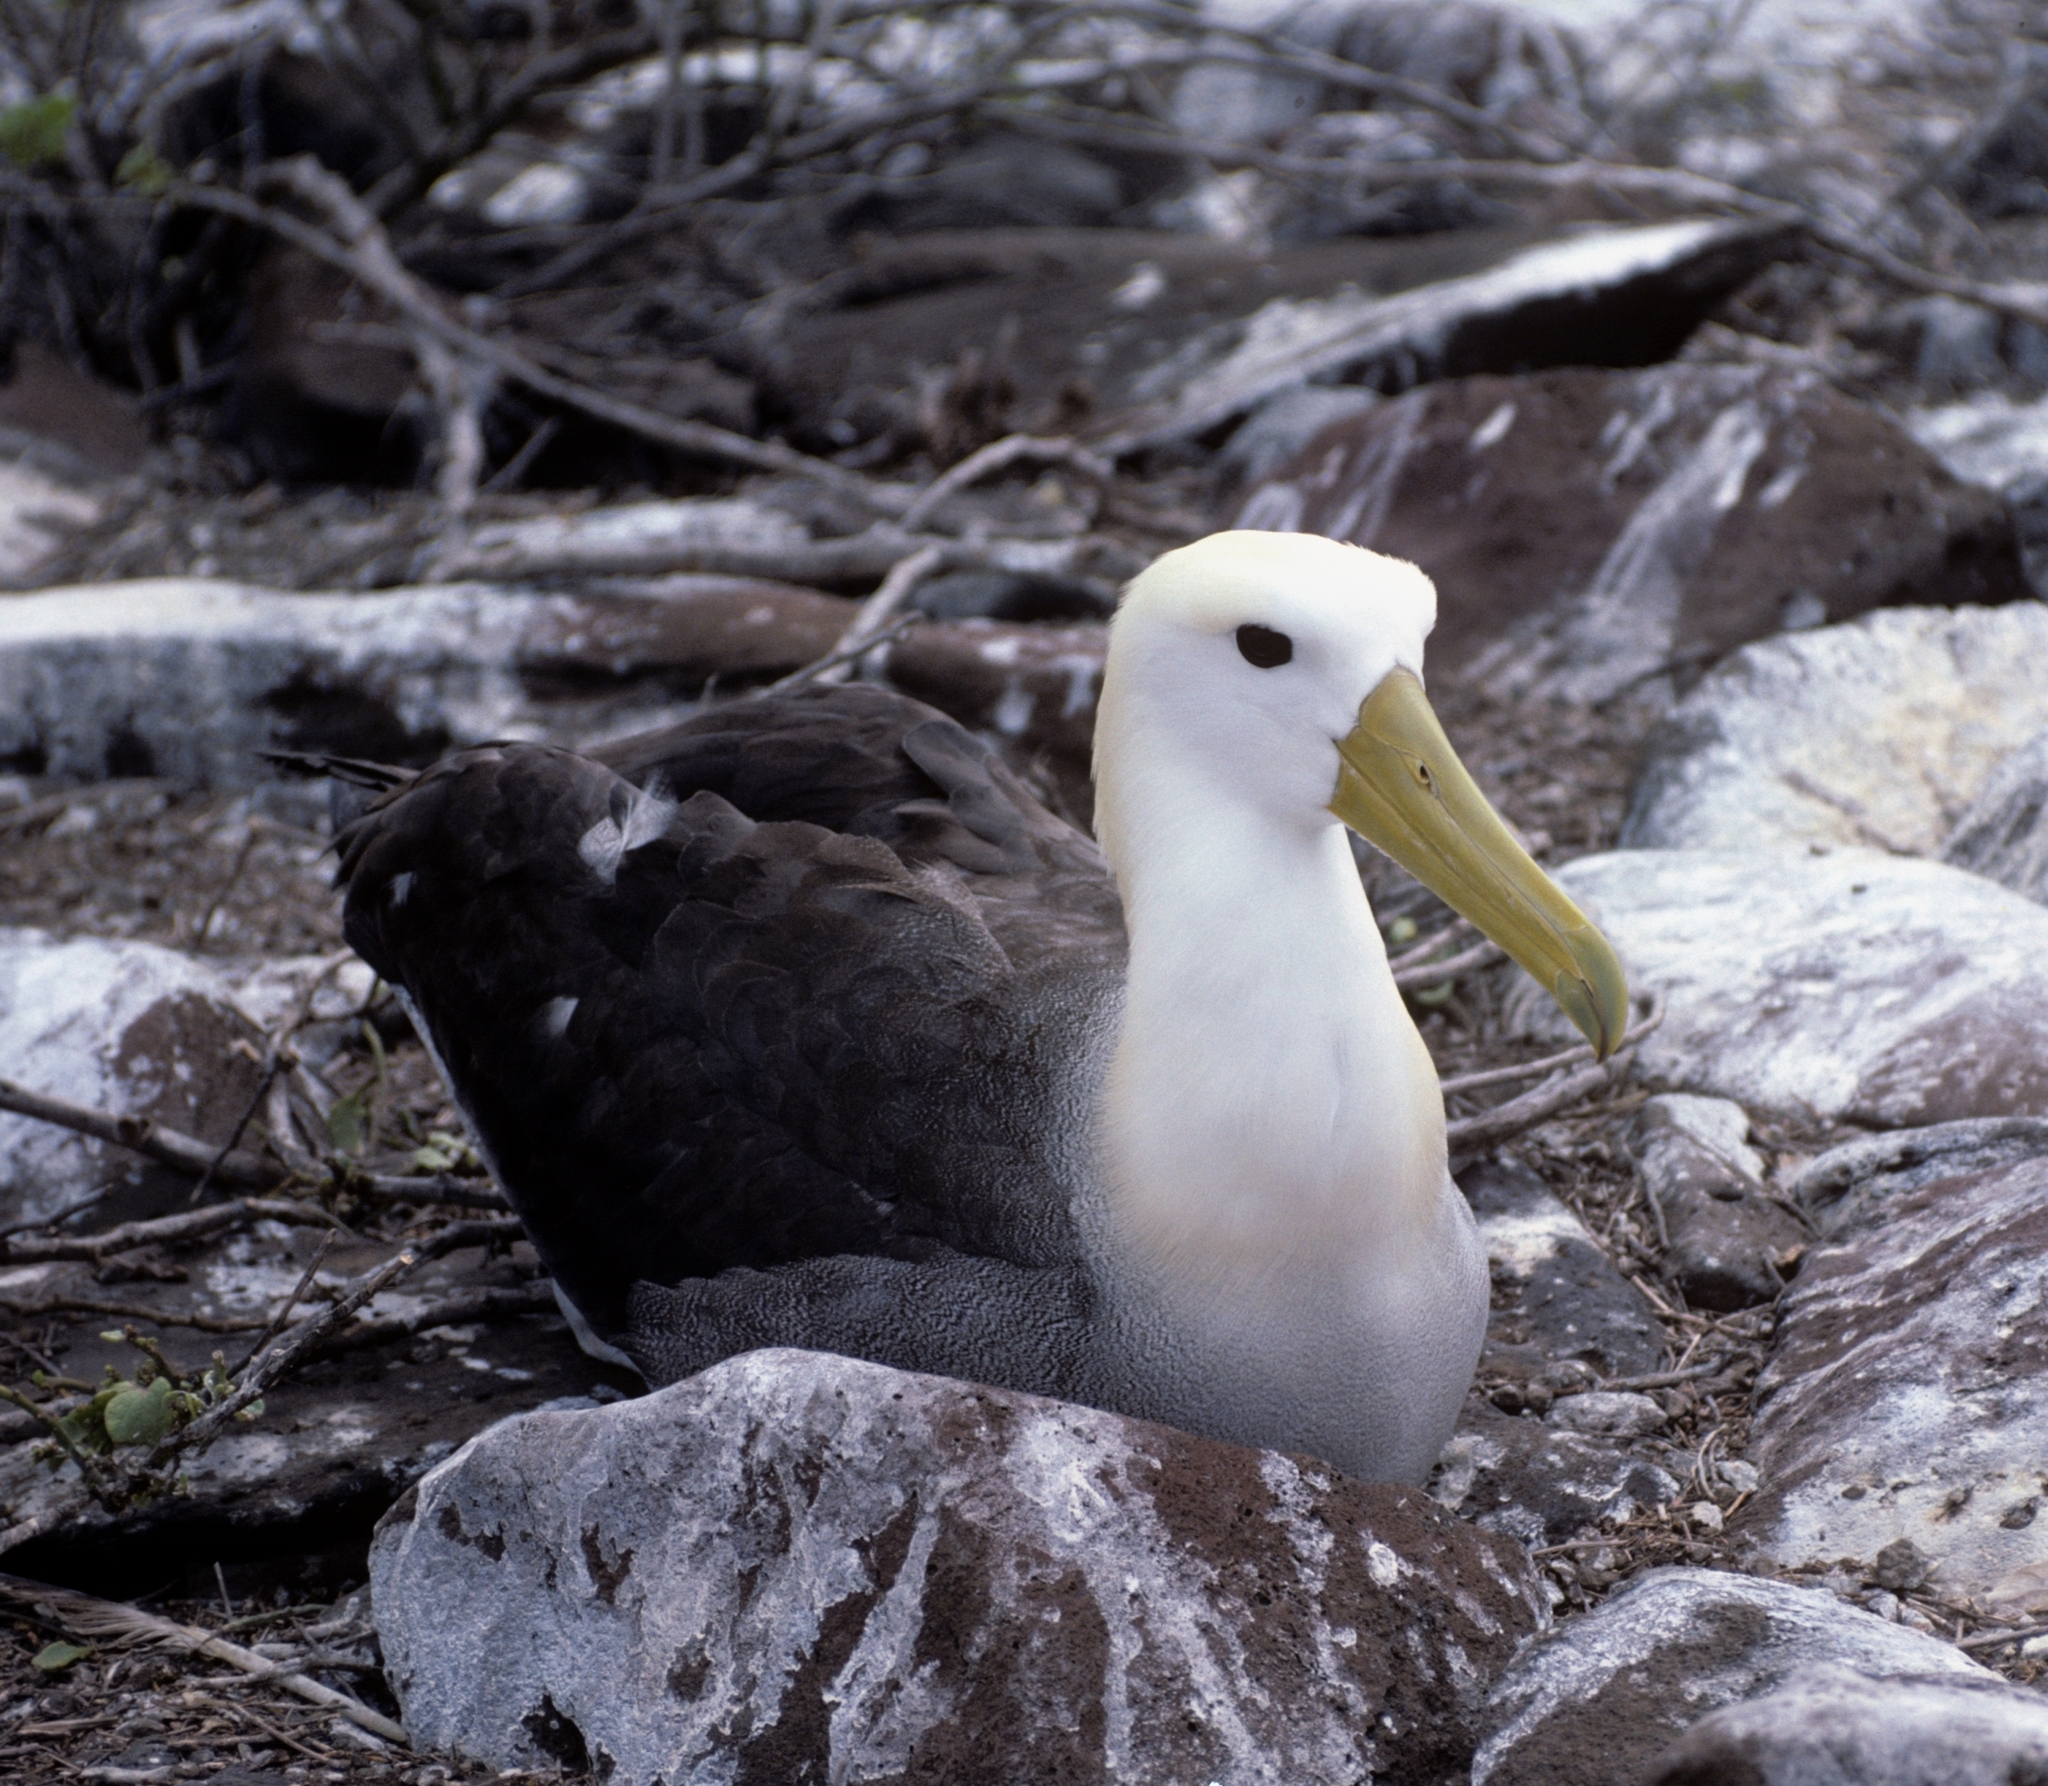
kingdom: Animalia
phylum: Chordata
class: Aves
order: Procellariiformes
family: Diomedeidae
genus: Phoebastria
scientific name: Phoebastria irrorata
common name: Waved albatross
